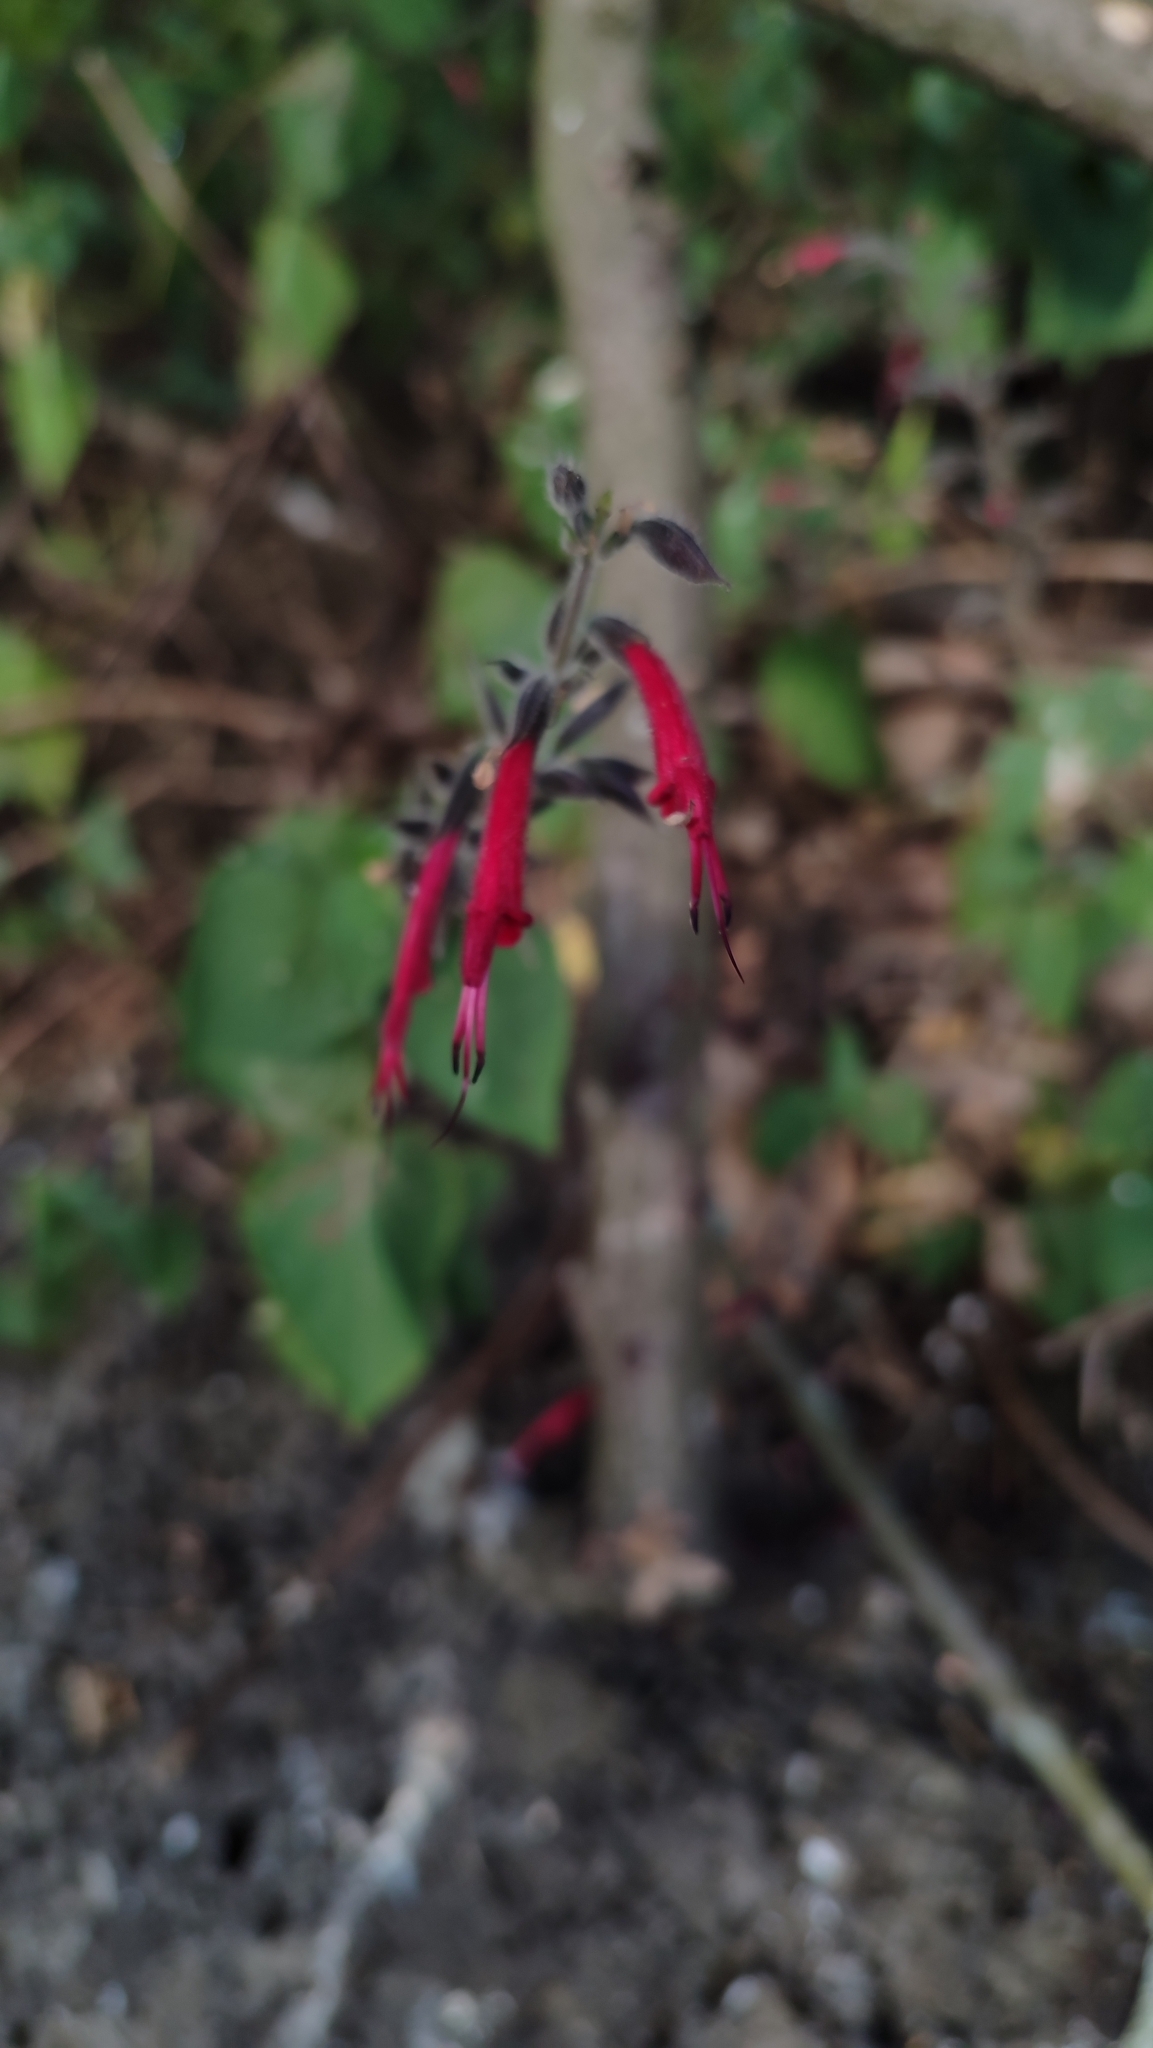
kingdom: Plantae
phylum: Tracheophyta
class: Magnoliopsida
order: Lamiales
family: Lamiaceae
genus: Salvia
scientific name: Salvia longistyla
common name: Mexican sage
